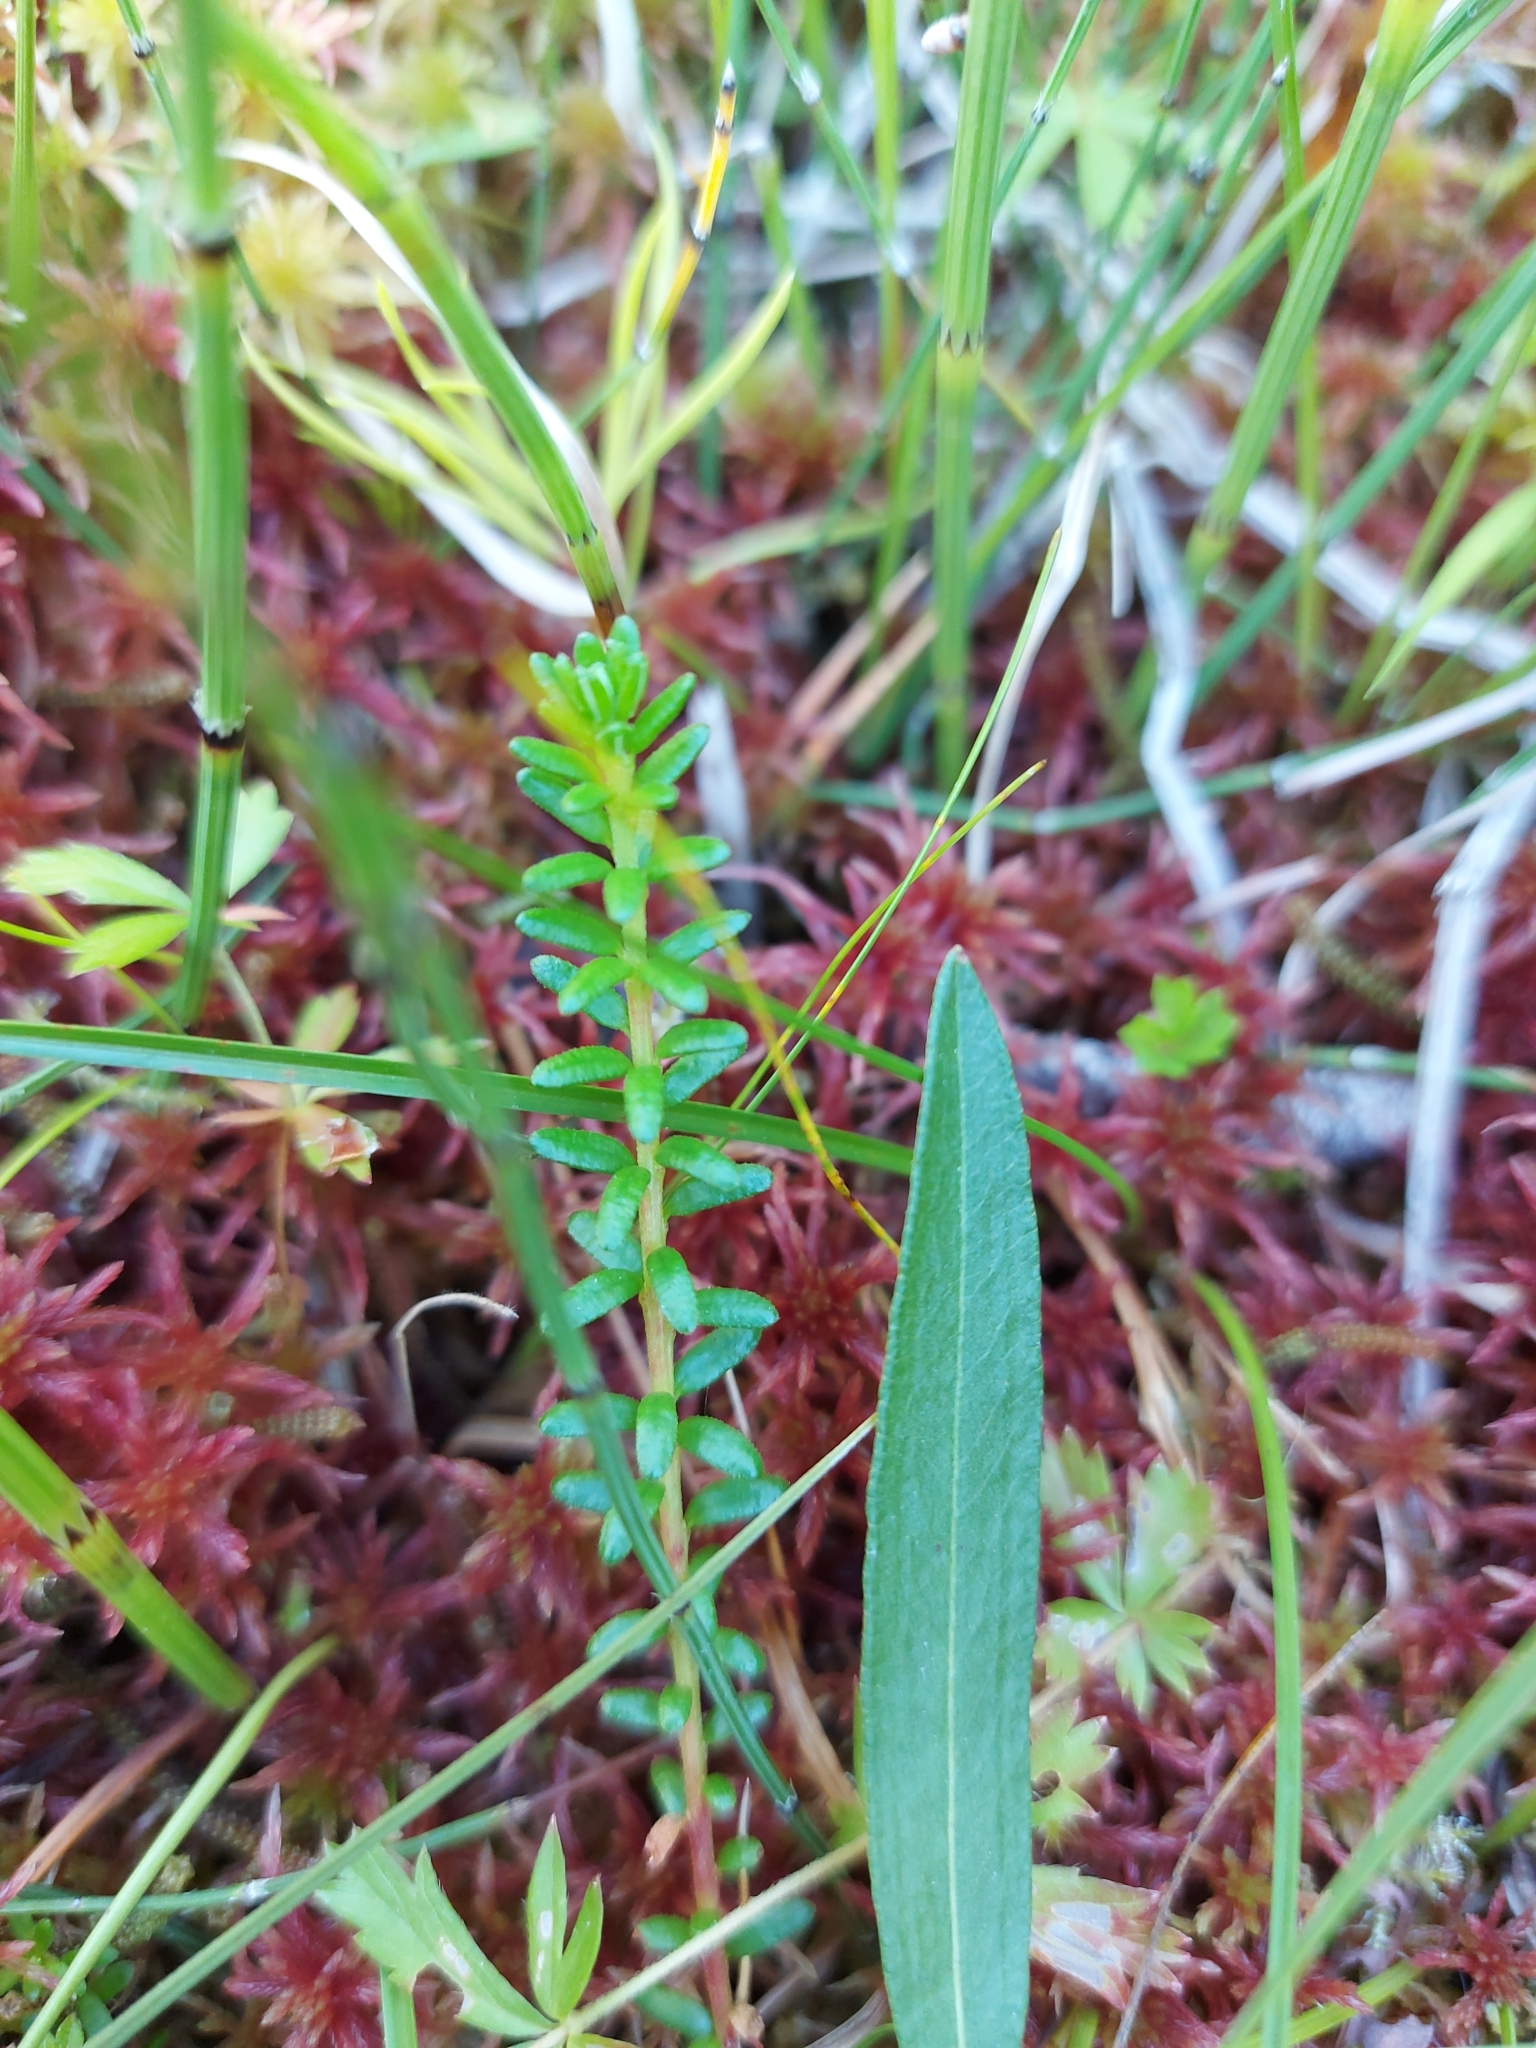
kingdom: Plantae
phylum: Tracheophyta
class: Magnoliopsida
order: Ericales
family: Ericaceae
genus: Empetrum
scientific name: Empetrum nigrum
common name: Black crowberry
